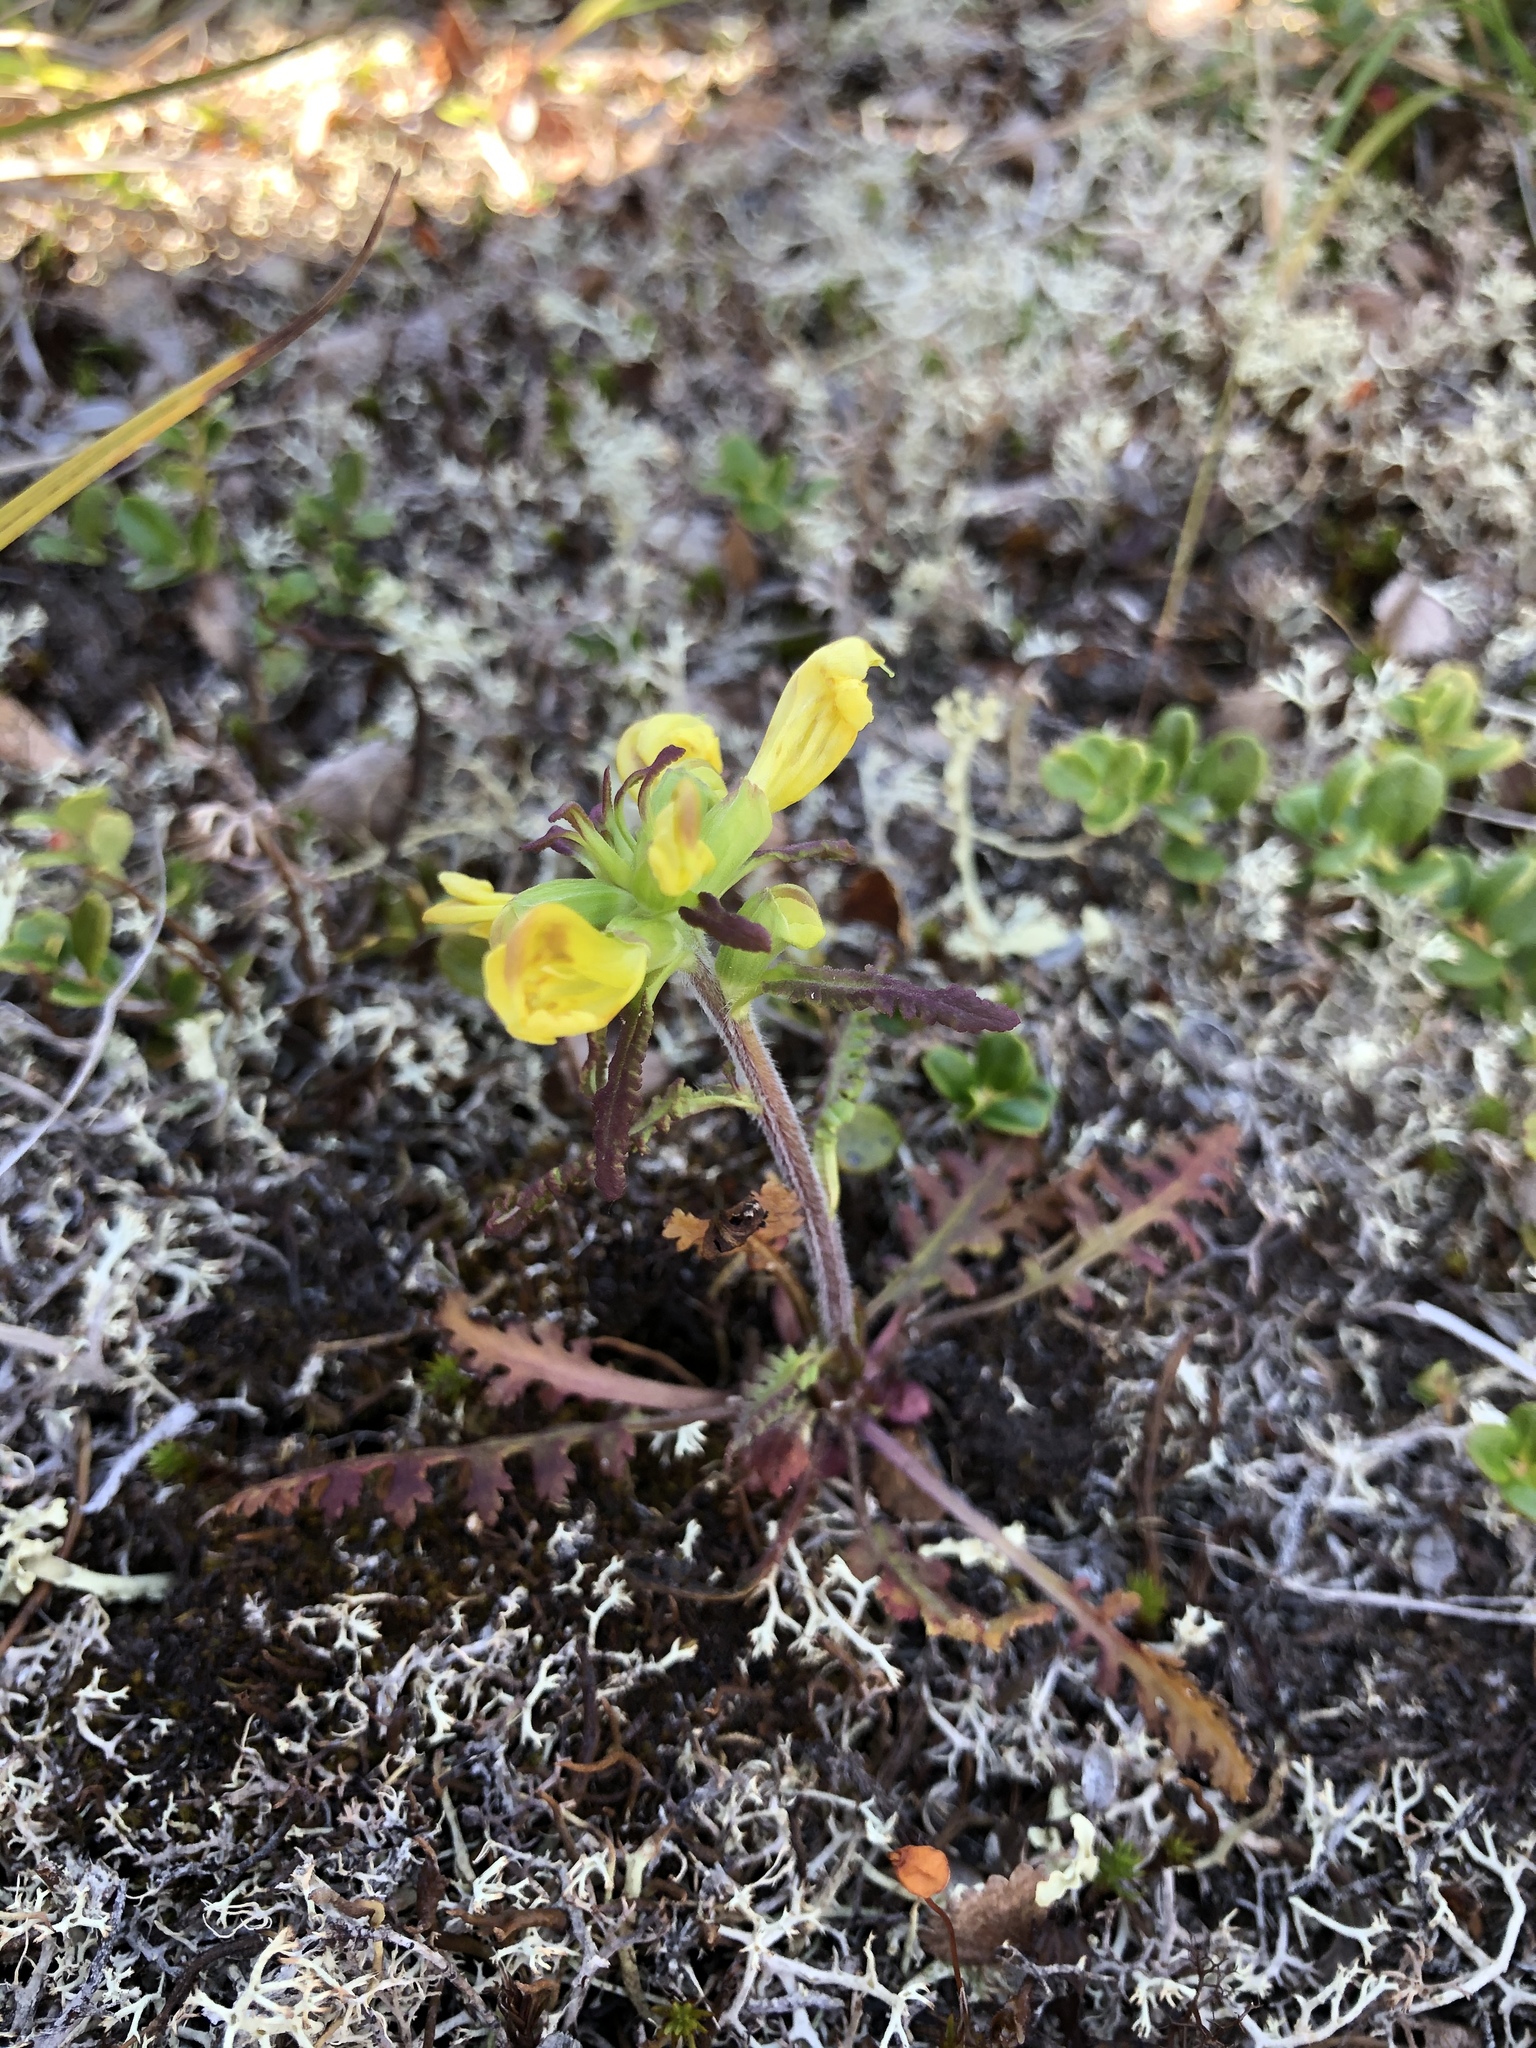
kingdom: Plantae
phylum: Tracheophyta
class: Magnoliopsida
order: Lamiales
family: Orobanchaceae
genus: Pedicularis
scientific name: Pedicularis labradorica
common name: Labrador lousewort
